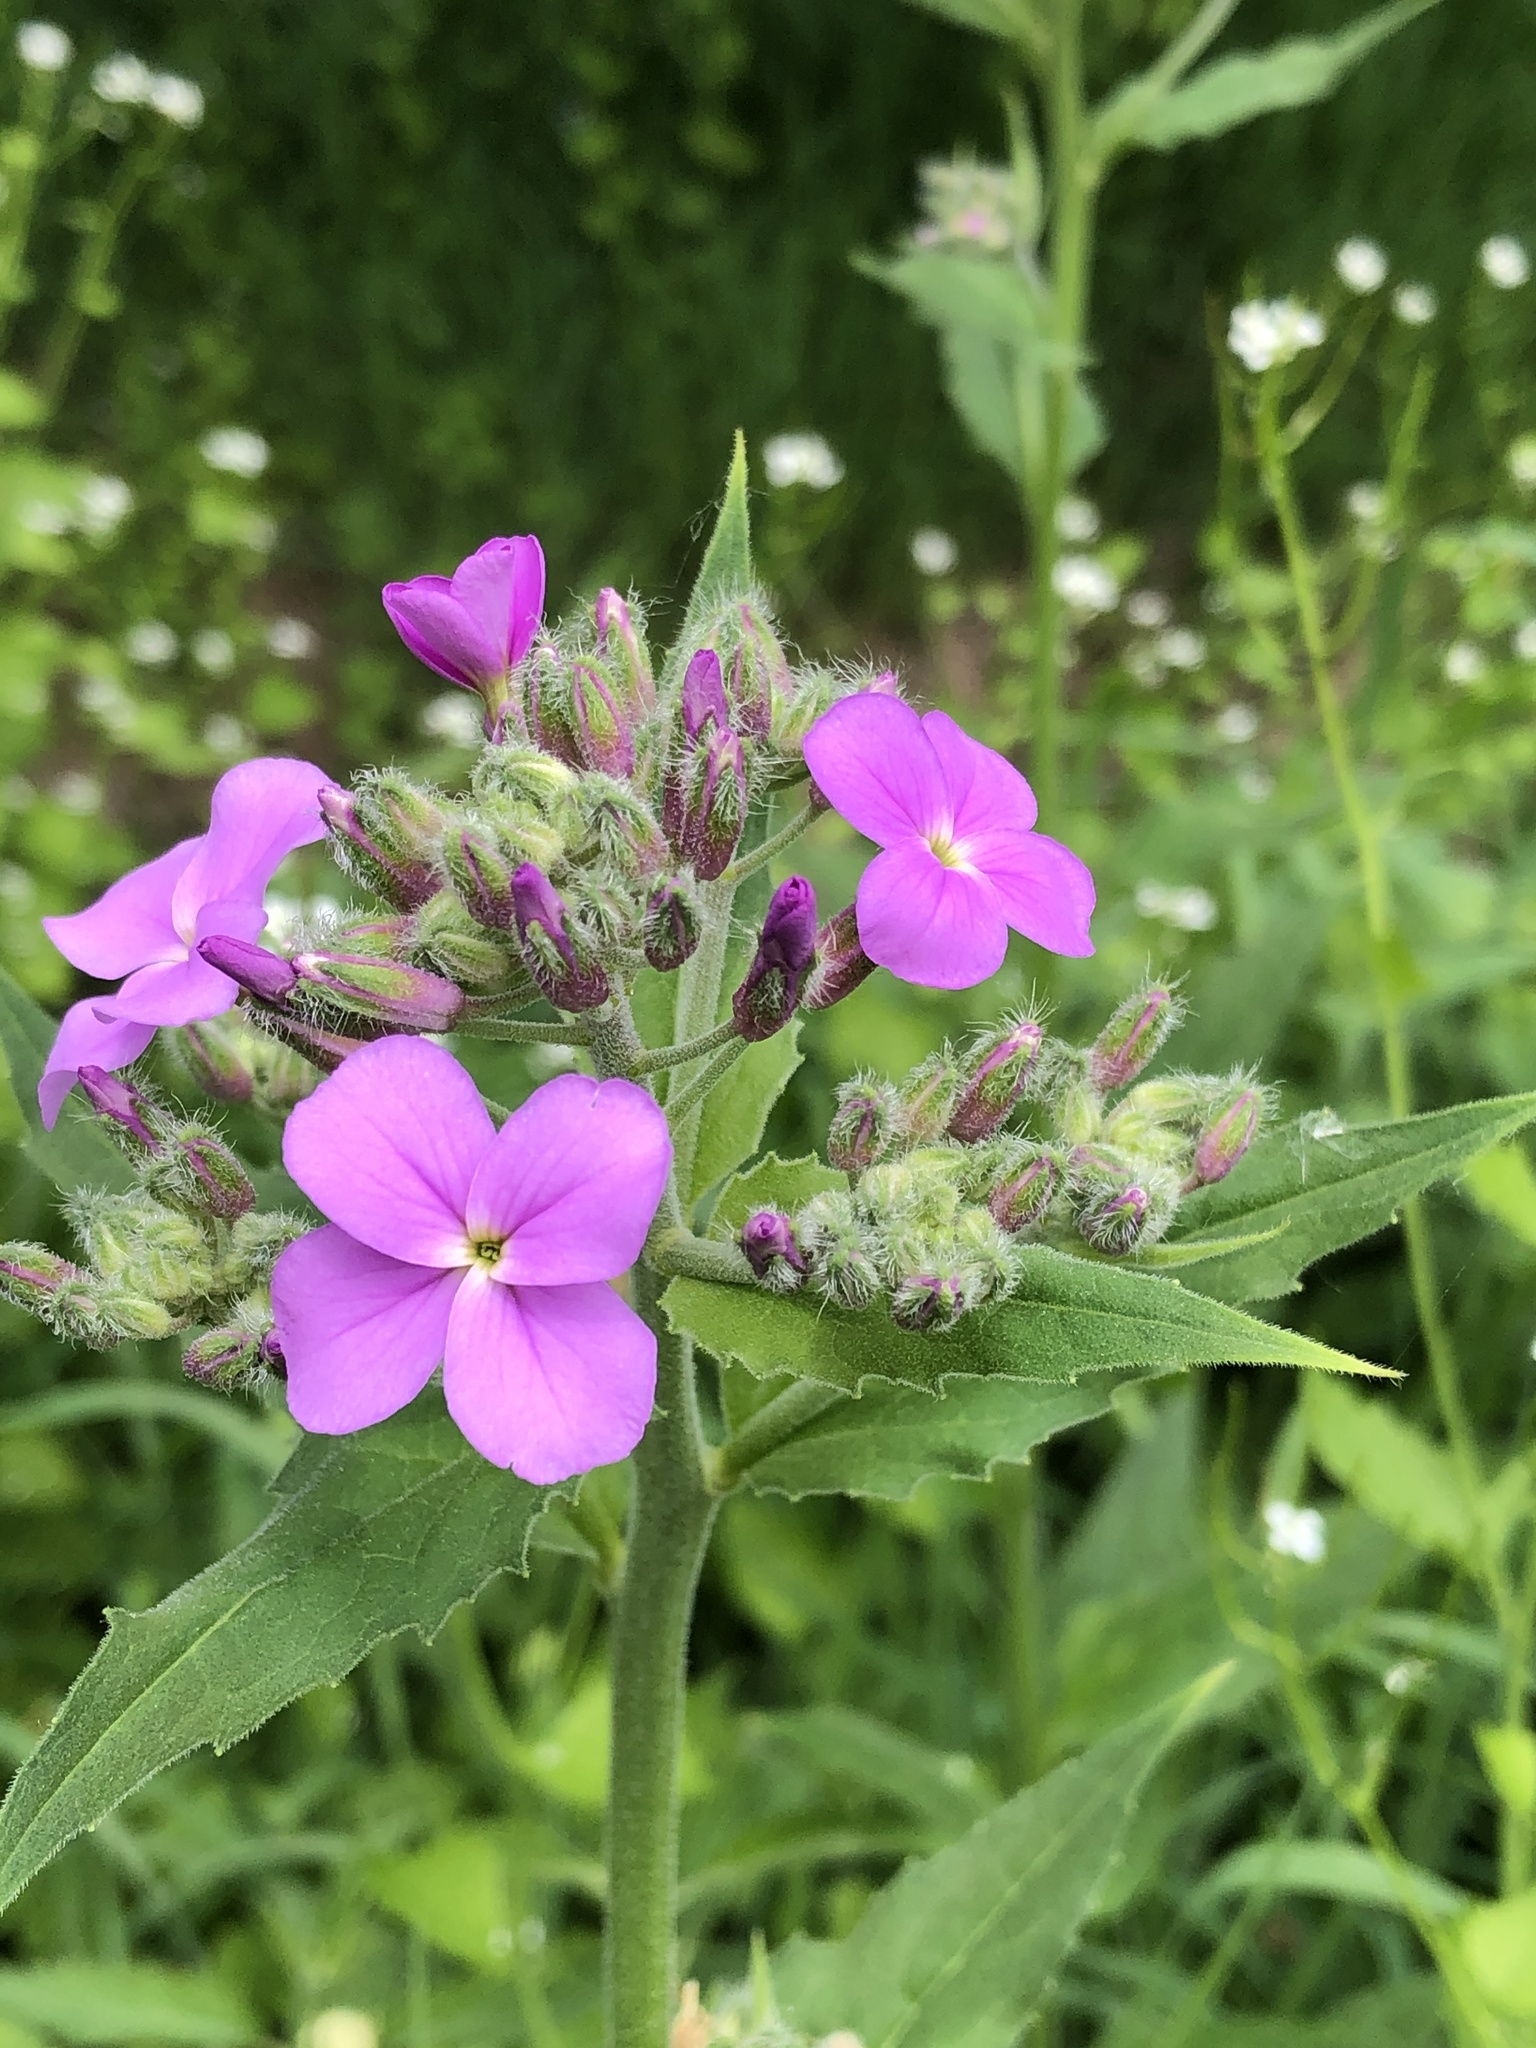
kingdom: Plantae
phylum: Tracheophyta
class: Magnoliopsida
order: Brassicales
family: Brassicaceae
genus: Hesperis
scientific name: Hesperis matronalis
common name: Dame's-violet
